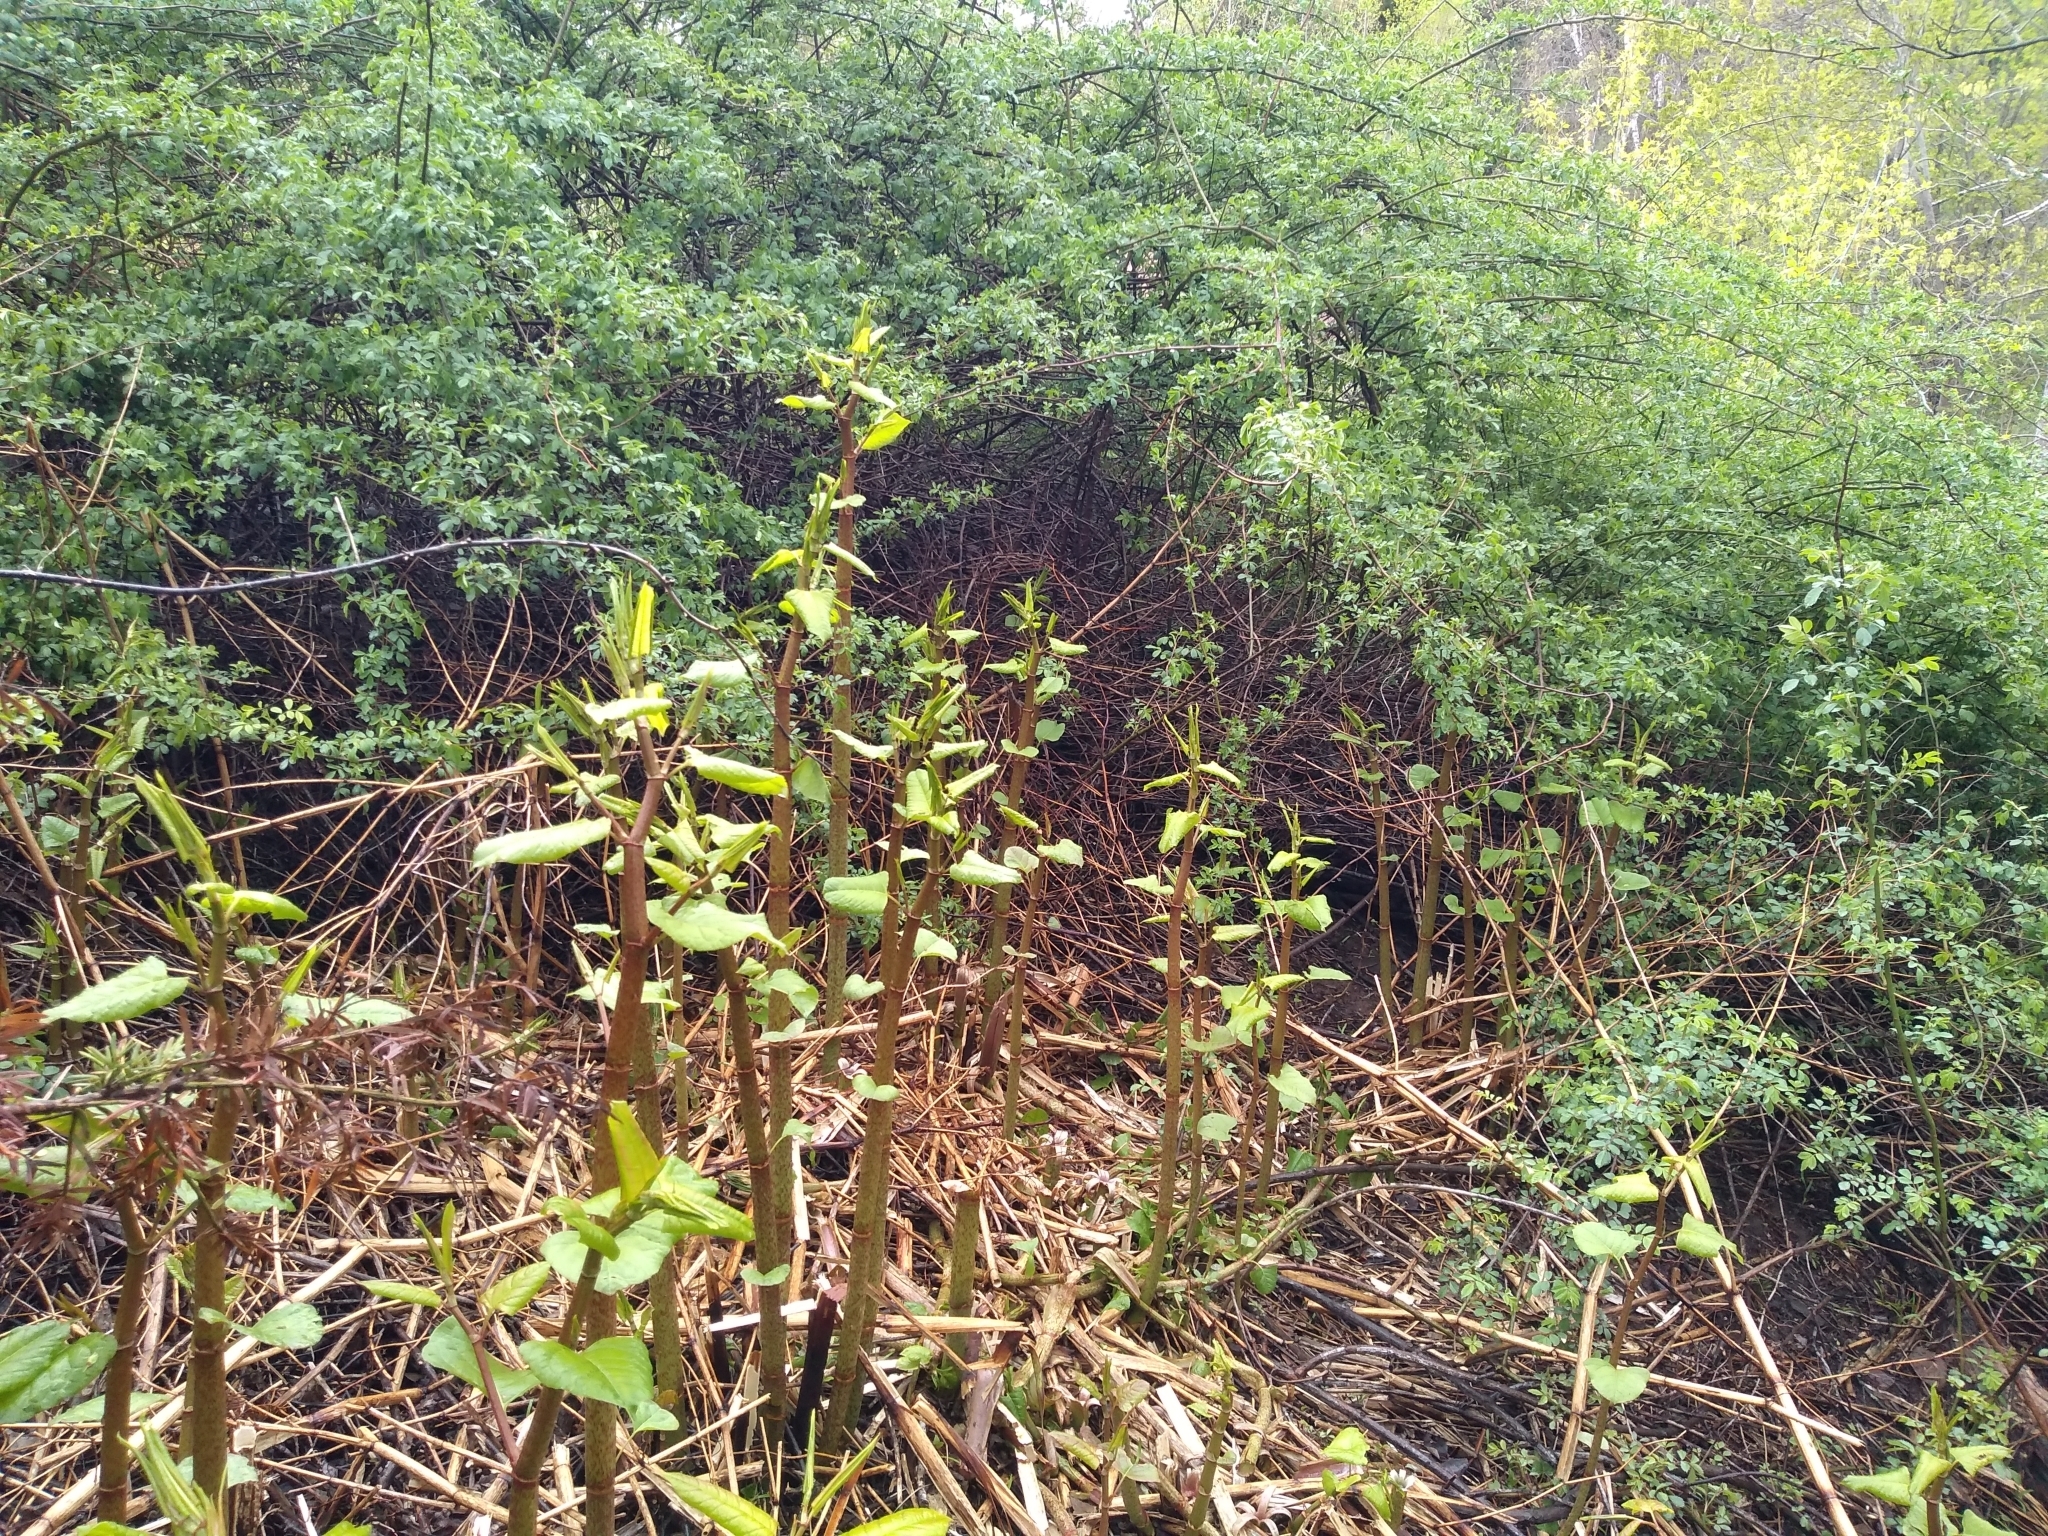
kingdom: Plantae
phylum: Tracheophyta
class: Magnoliopsida
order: Caryophyllales
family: Polygonaceae
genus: Reynoutria
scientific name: Reynoutria japonica
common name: Japanese knotweed
